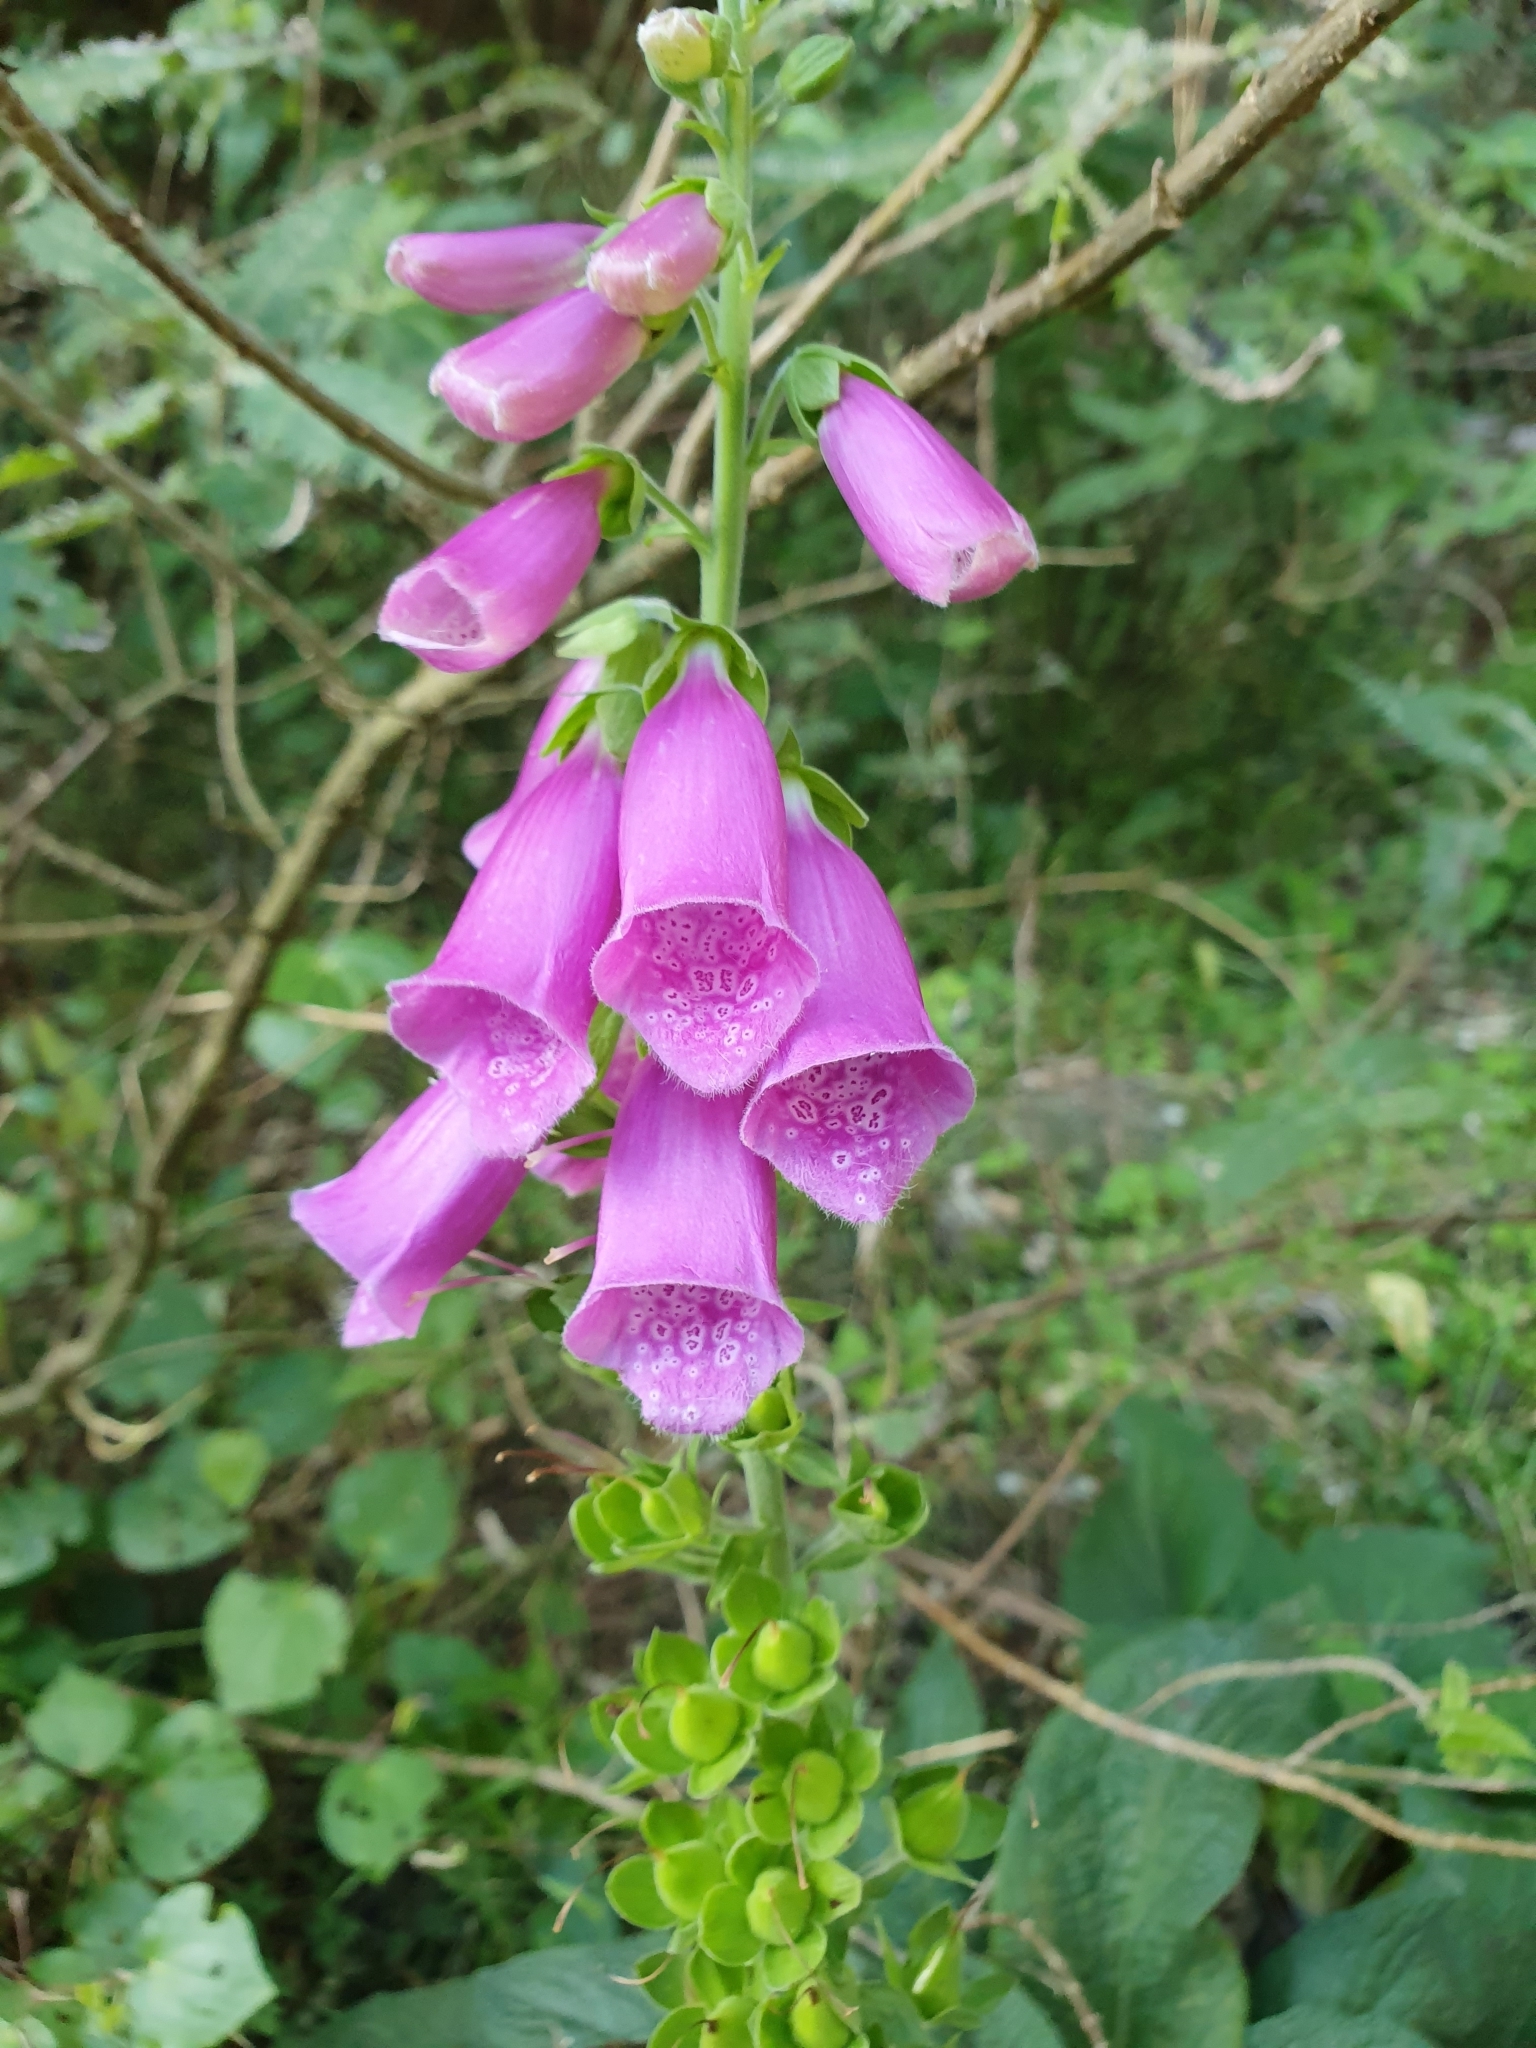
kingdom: Plantae
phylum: Tracheophyta
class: Magnoliopsida
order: Lamiales
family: Plantaginaceae
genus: Digitalis
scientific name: Digitalis purpurea
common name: Foxglove
